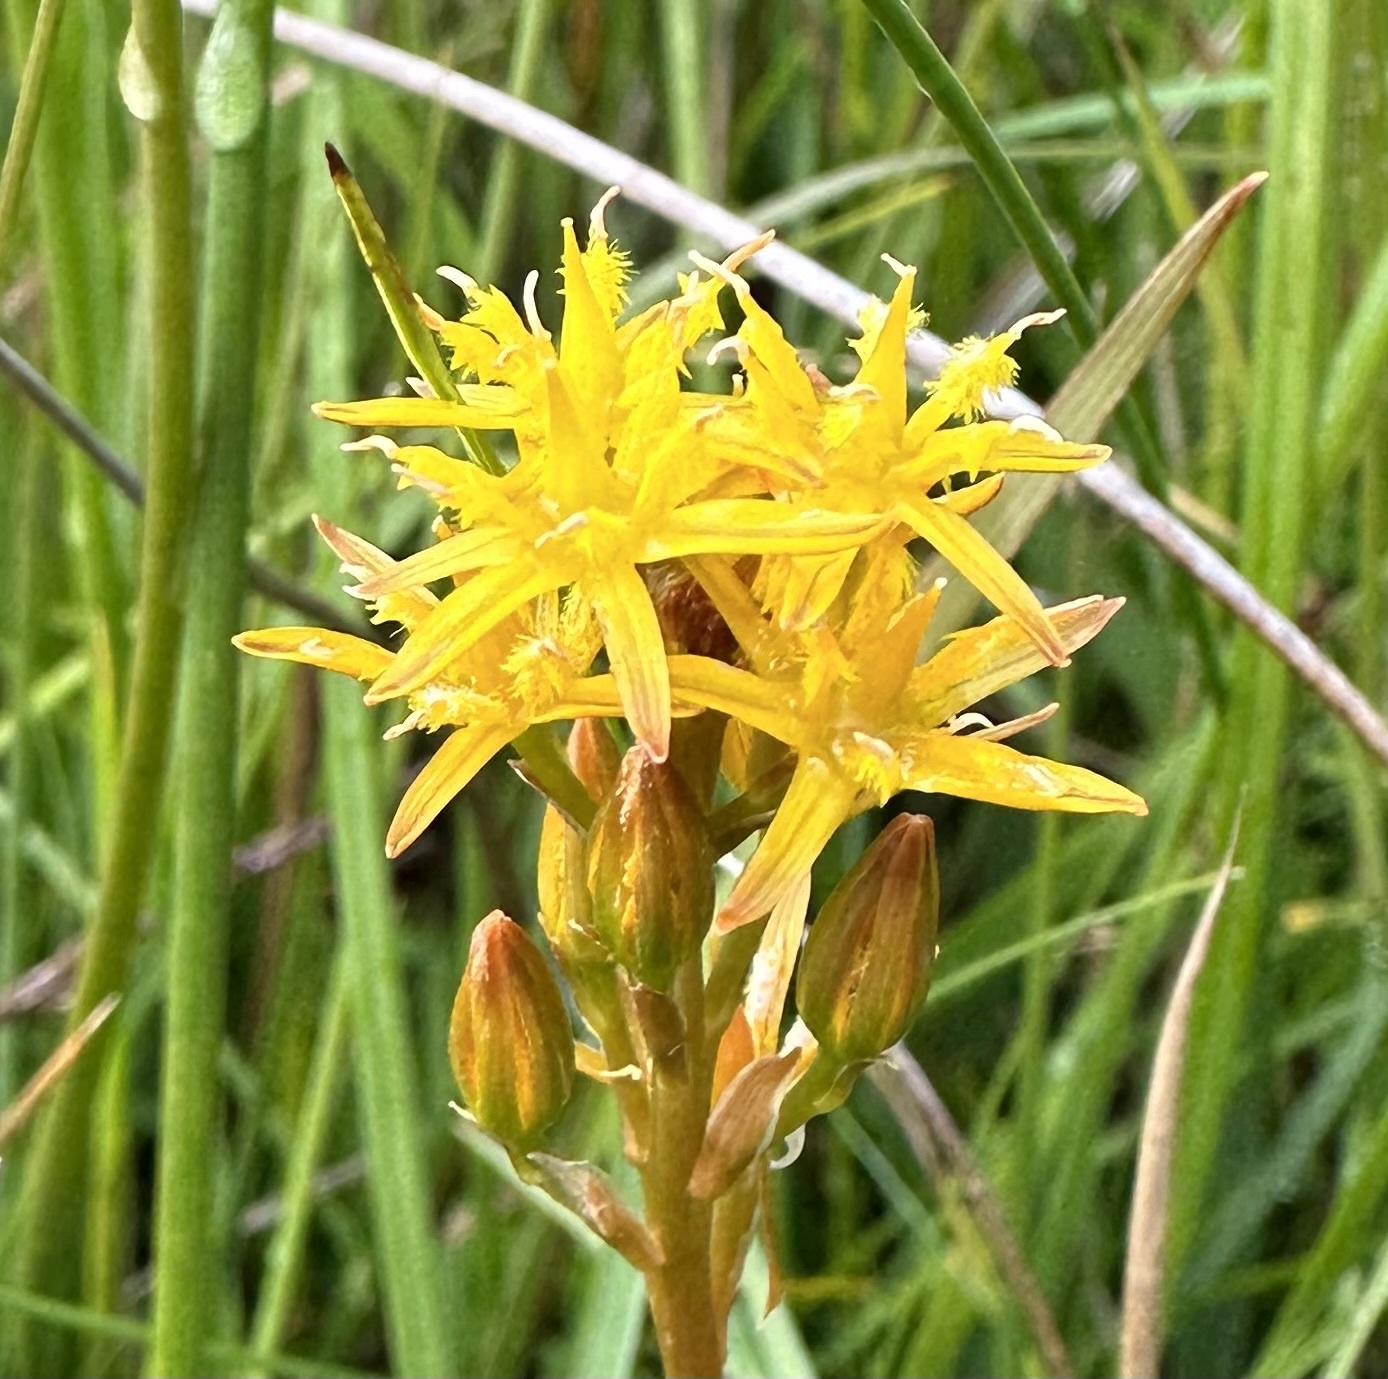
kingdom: Plantae
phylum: Tracheophyta
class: Liliopsida
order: Dioscoreales
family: Nartheciaceae
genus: Narthecium
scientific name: Narthecium ossifragum
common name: Bog asphodel
